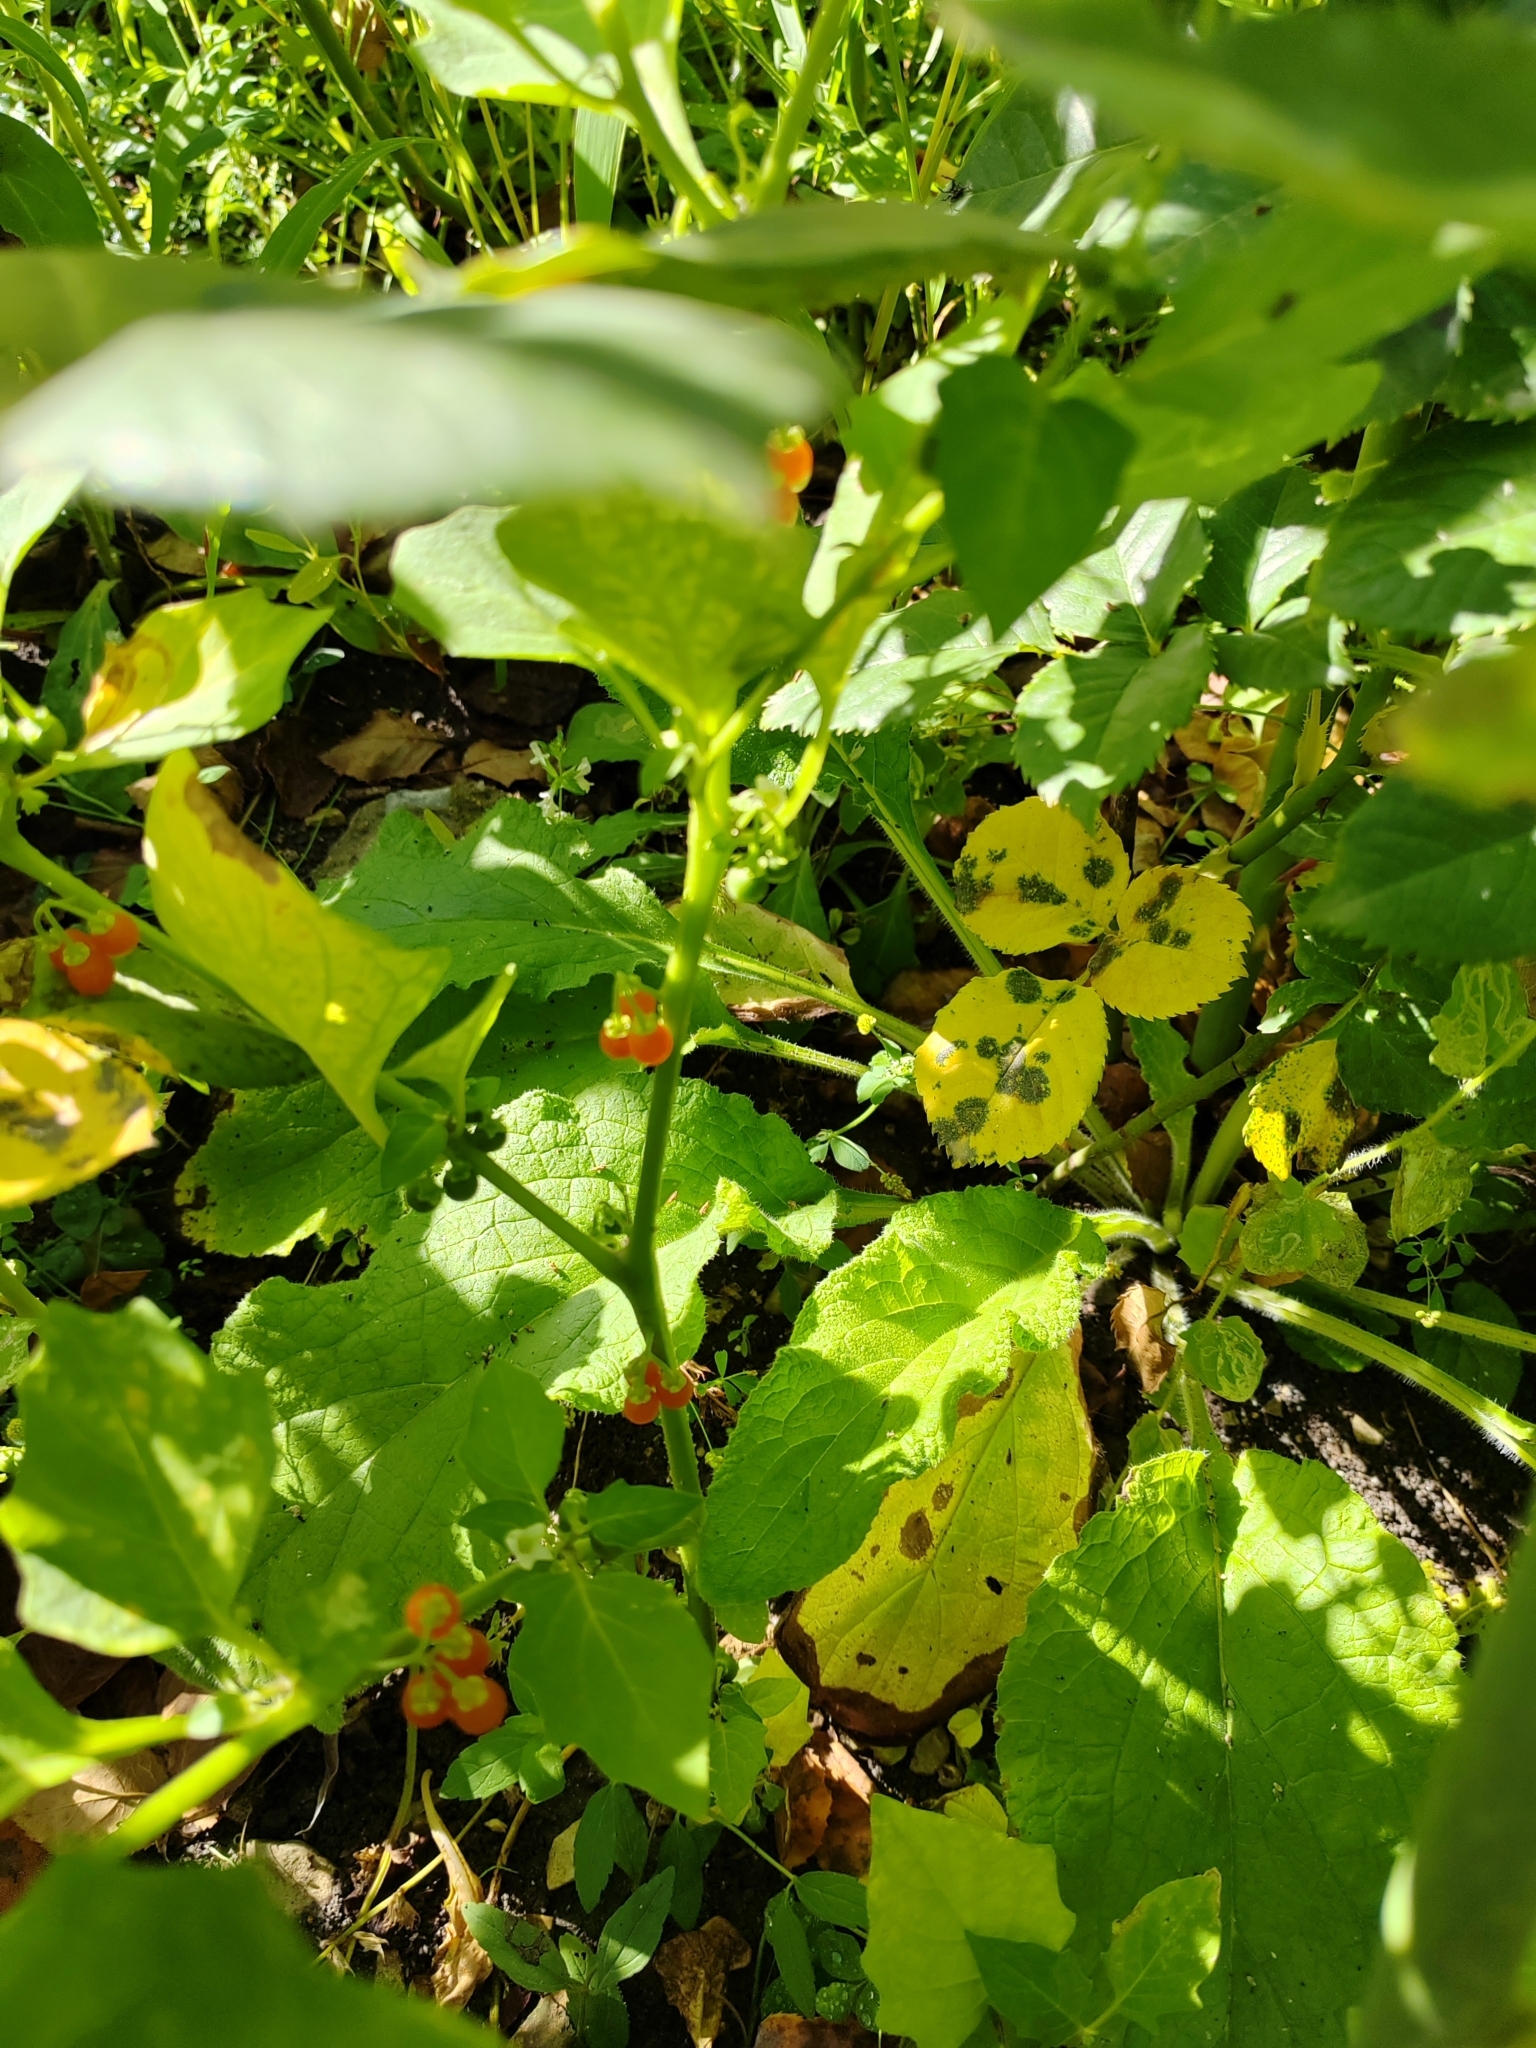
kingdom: Plantae
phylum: Tracheophyta
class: Magnoliopsida
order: Solanales
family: Solanaceae
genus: Solanum
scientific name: Solanum villosum
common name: Red nightshade
